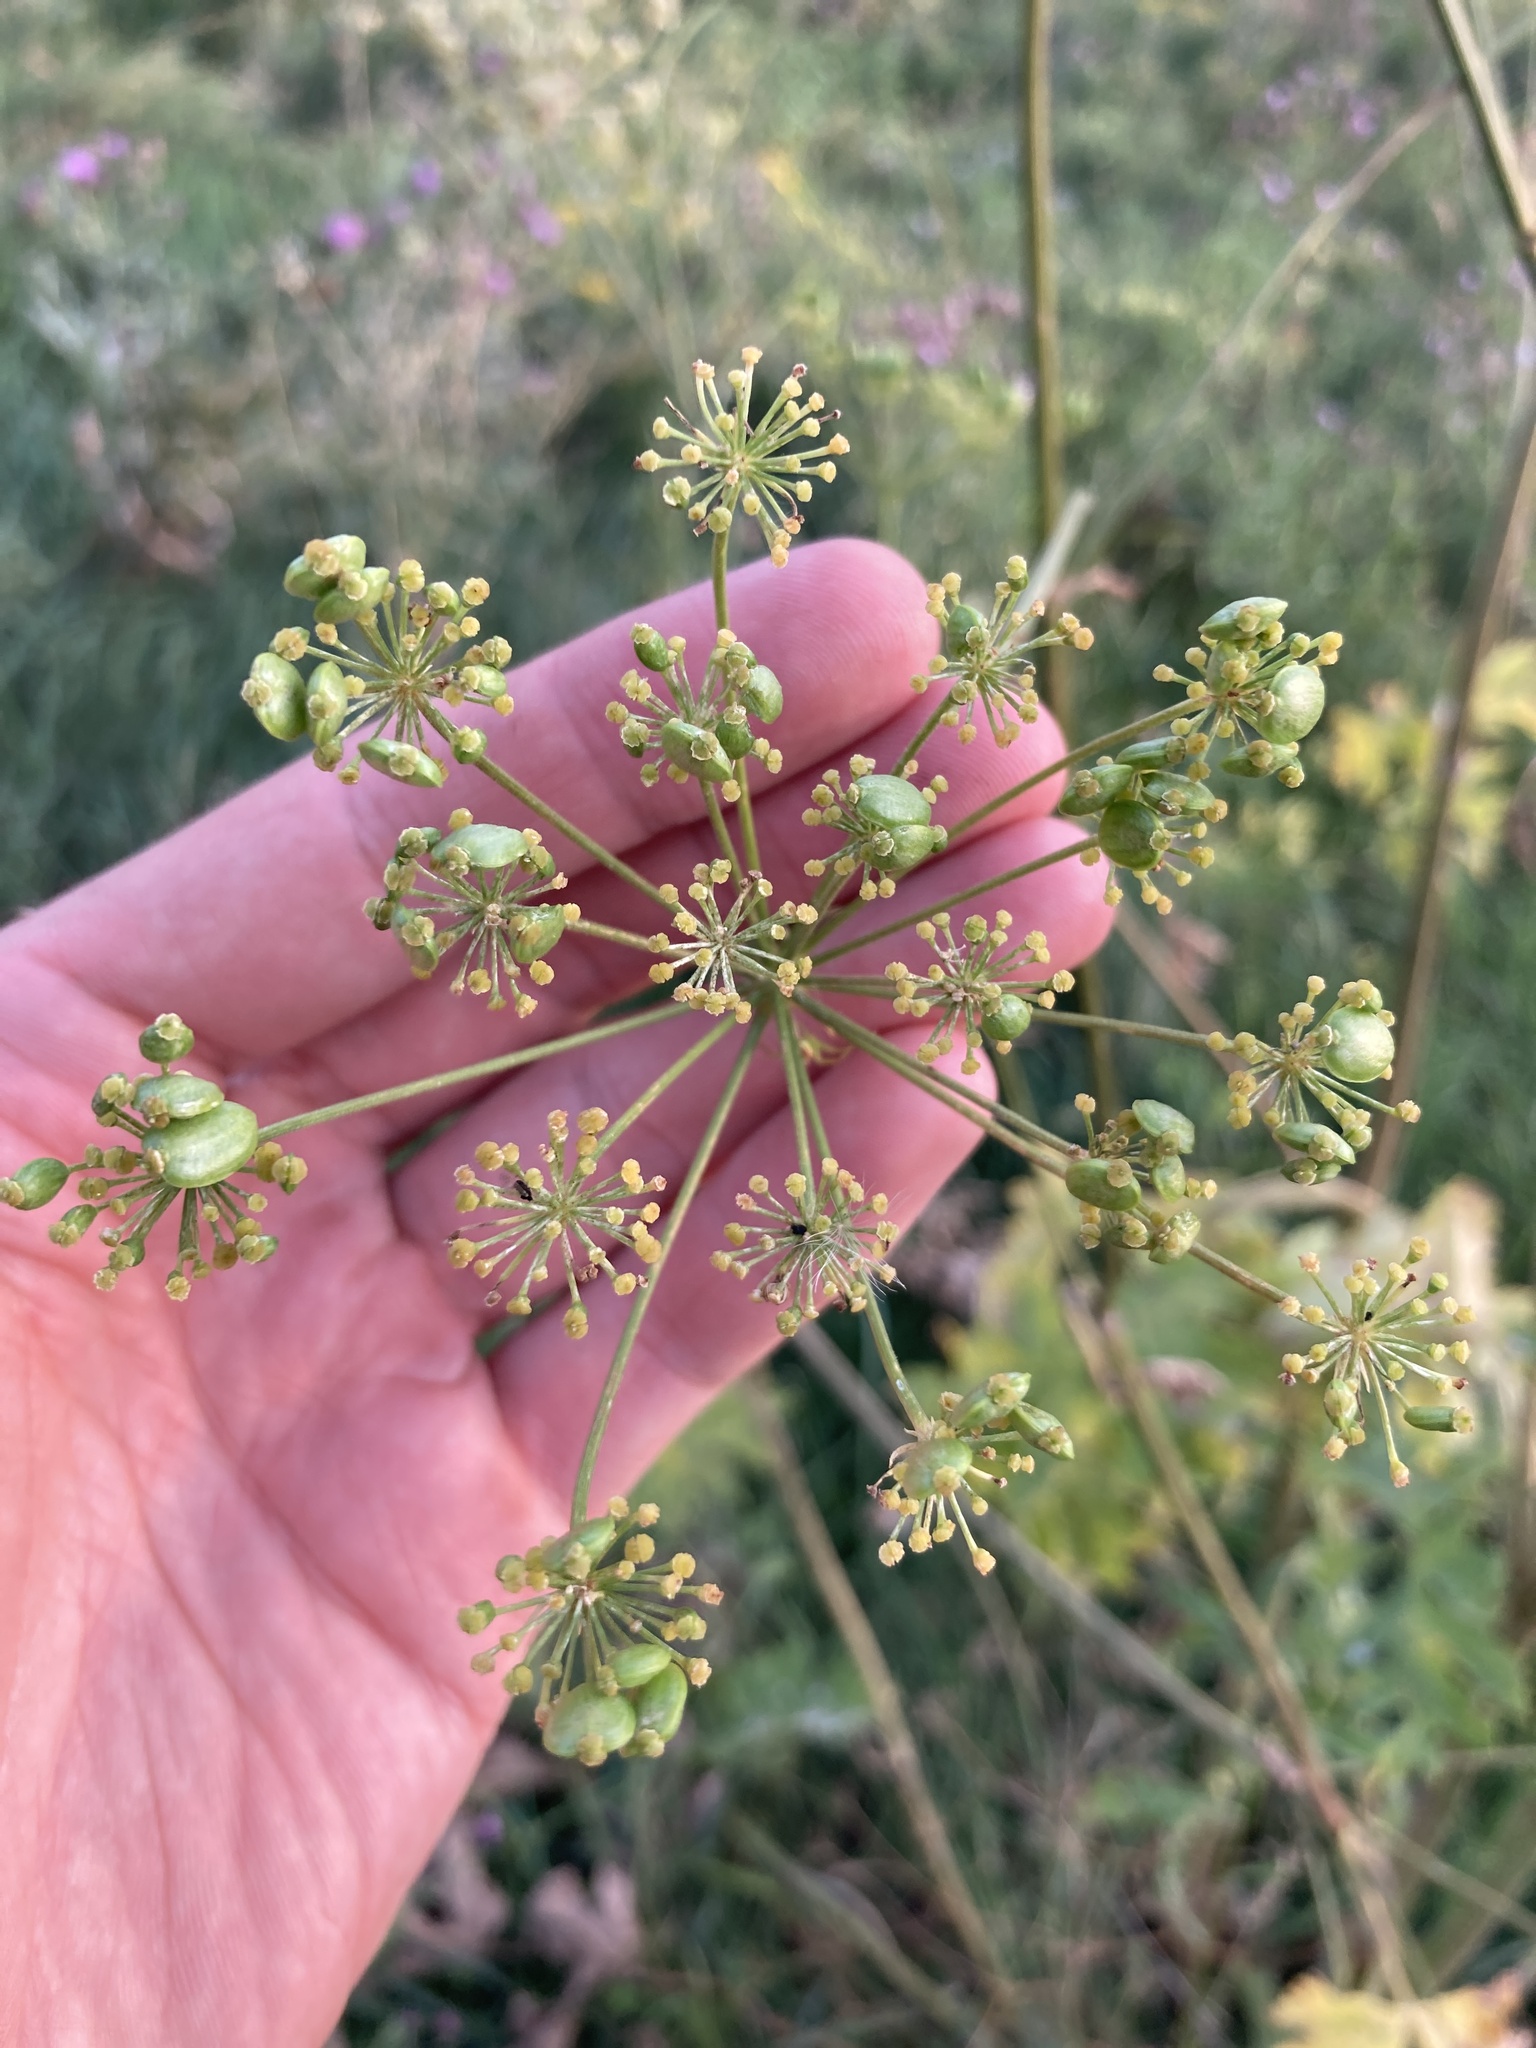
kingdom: Plantae
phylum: Tracheophyta
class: Magnoliopsida
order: Apiales
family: Apiaceae
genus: Heracleum
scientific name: Heracleum sphondylium
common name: Hogweed
